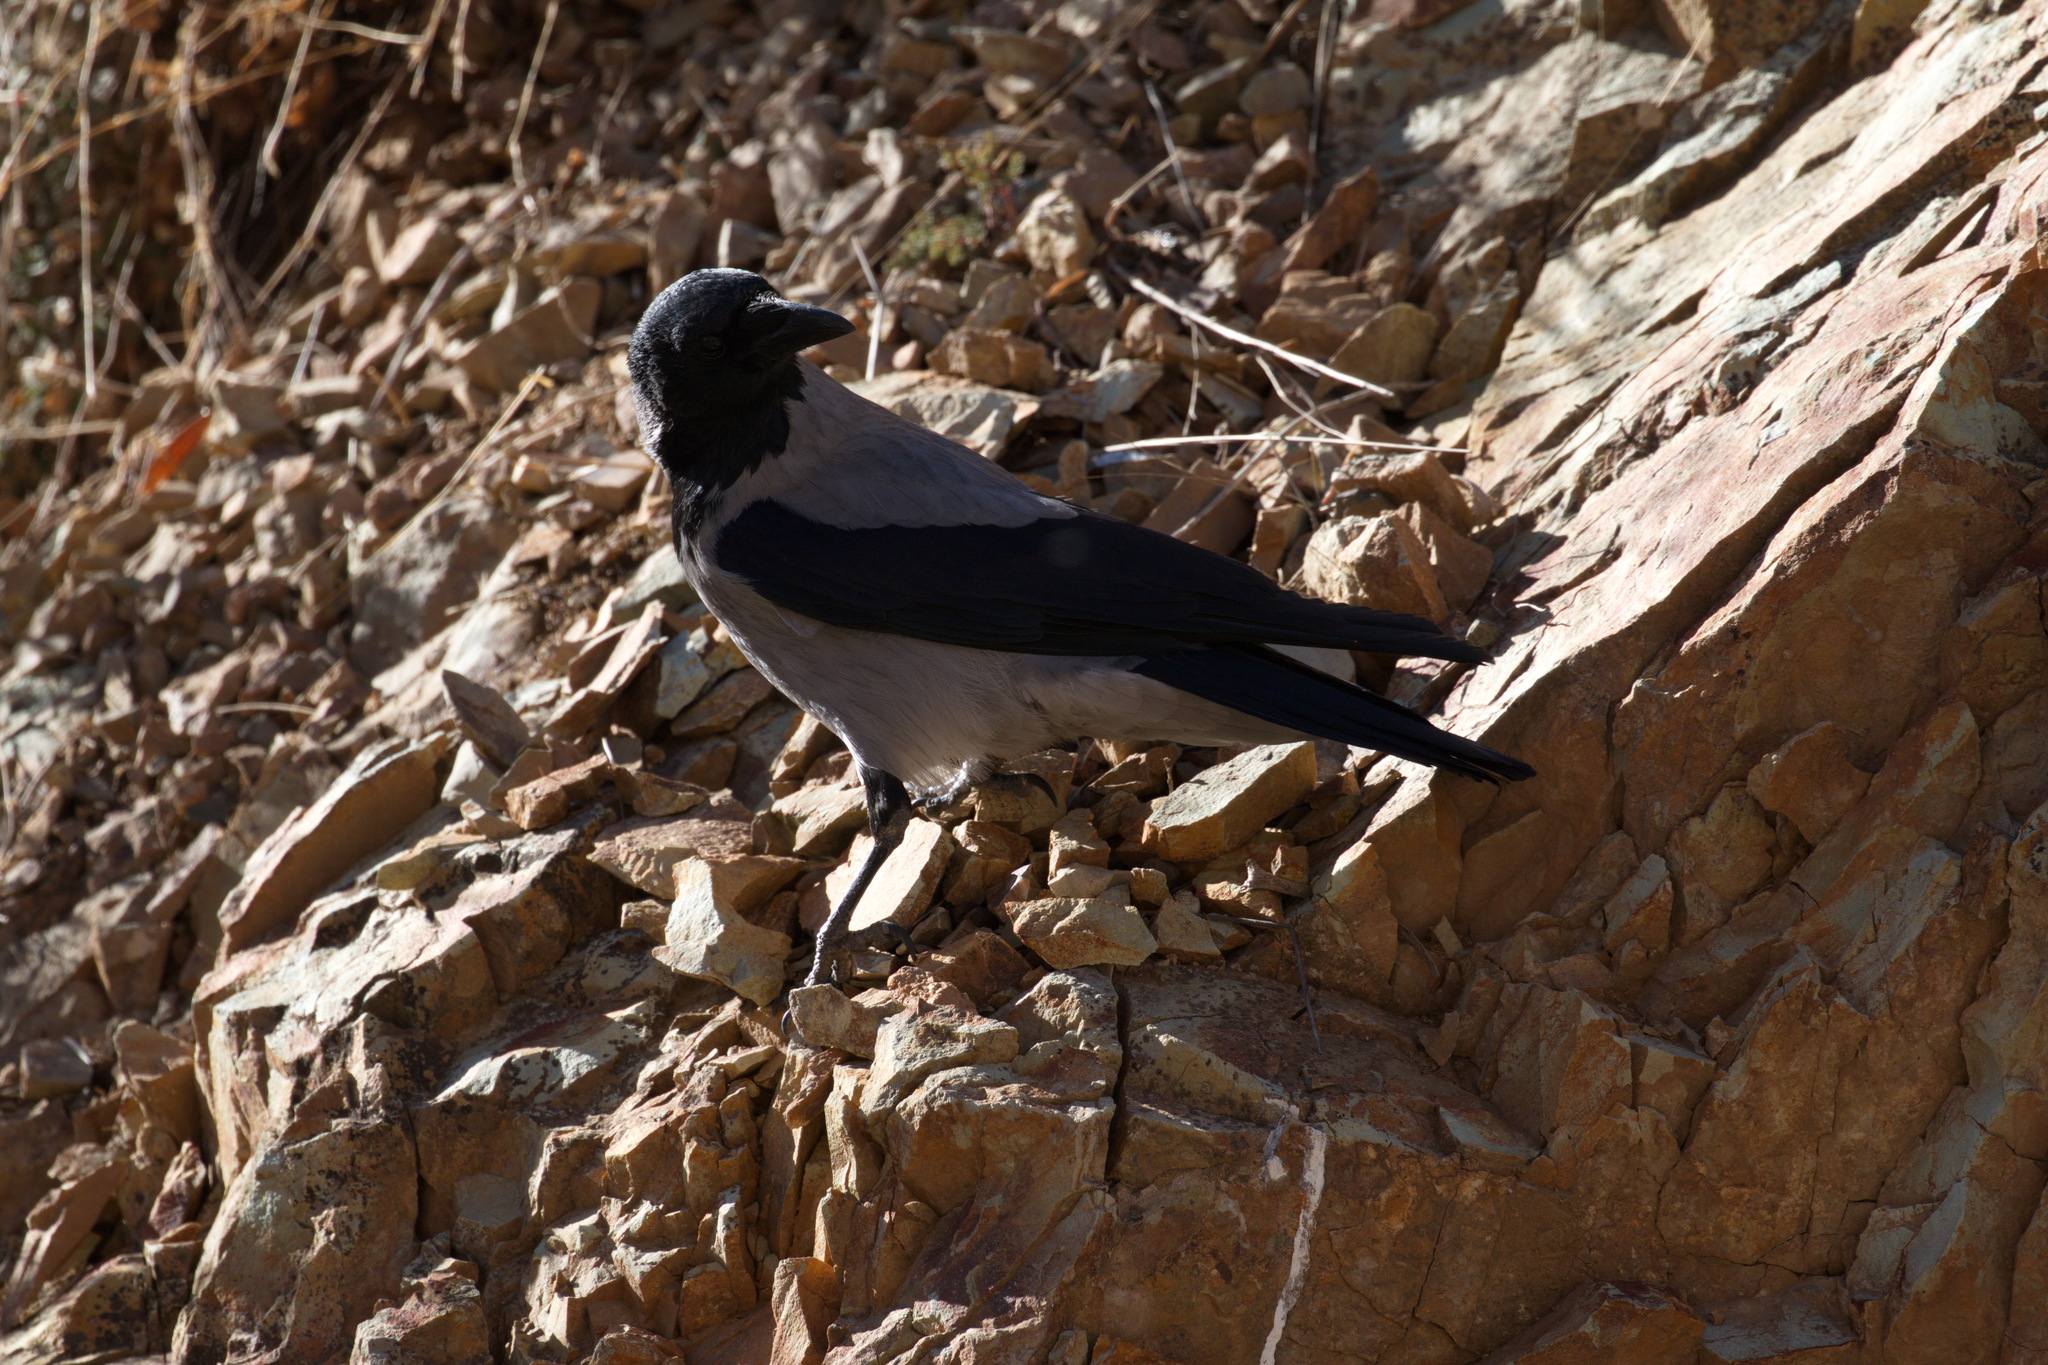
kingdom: Animalia
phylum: Chordata
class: Aves
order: Passeriformes
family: Corvidae
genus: Corvus
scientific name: Corvus cornix
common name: Hooded crow
